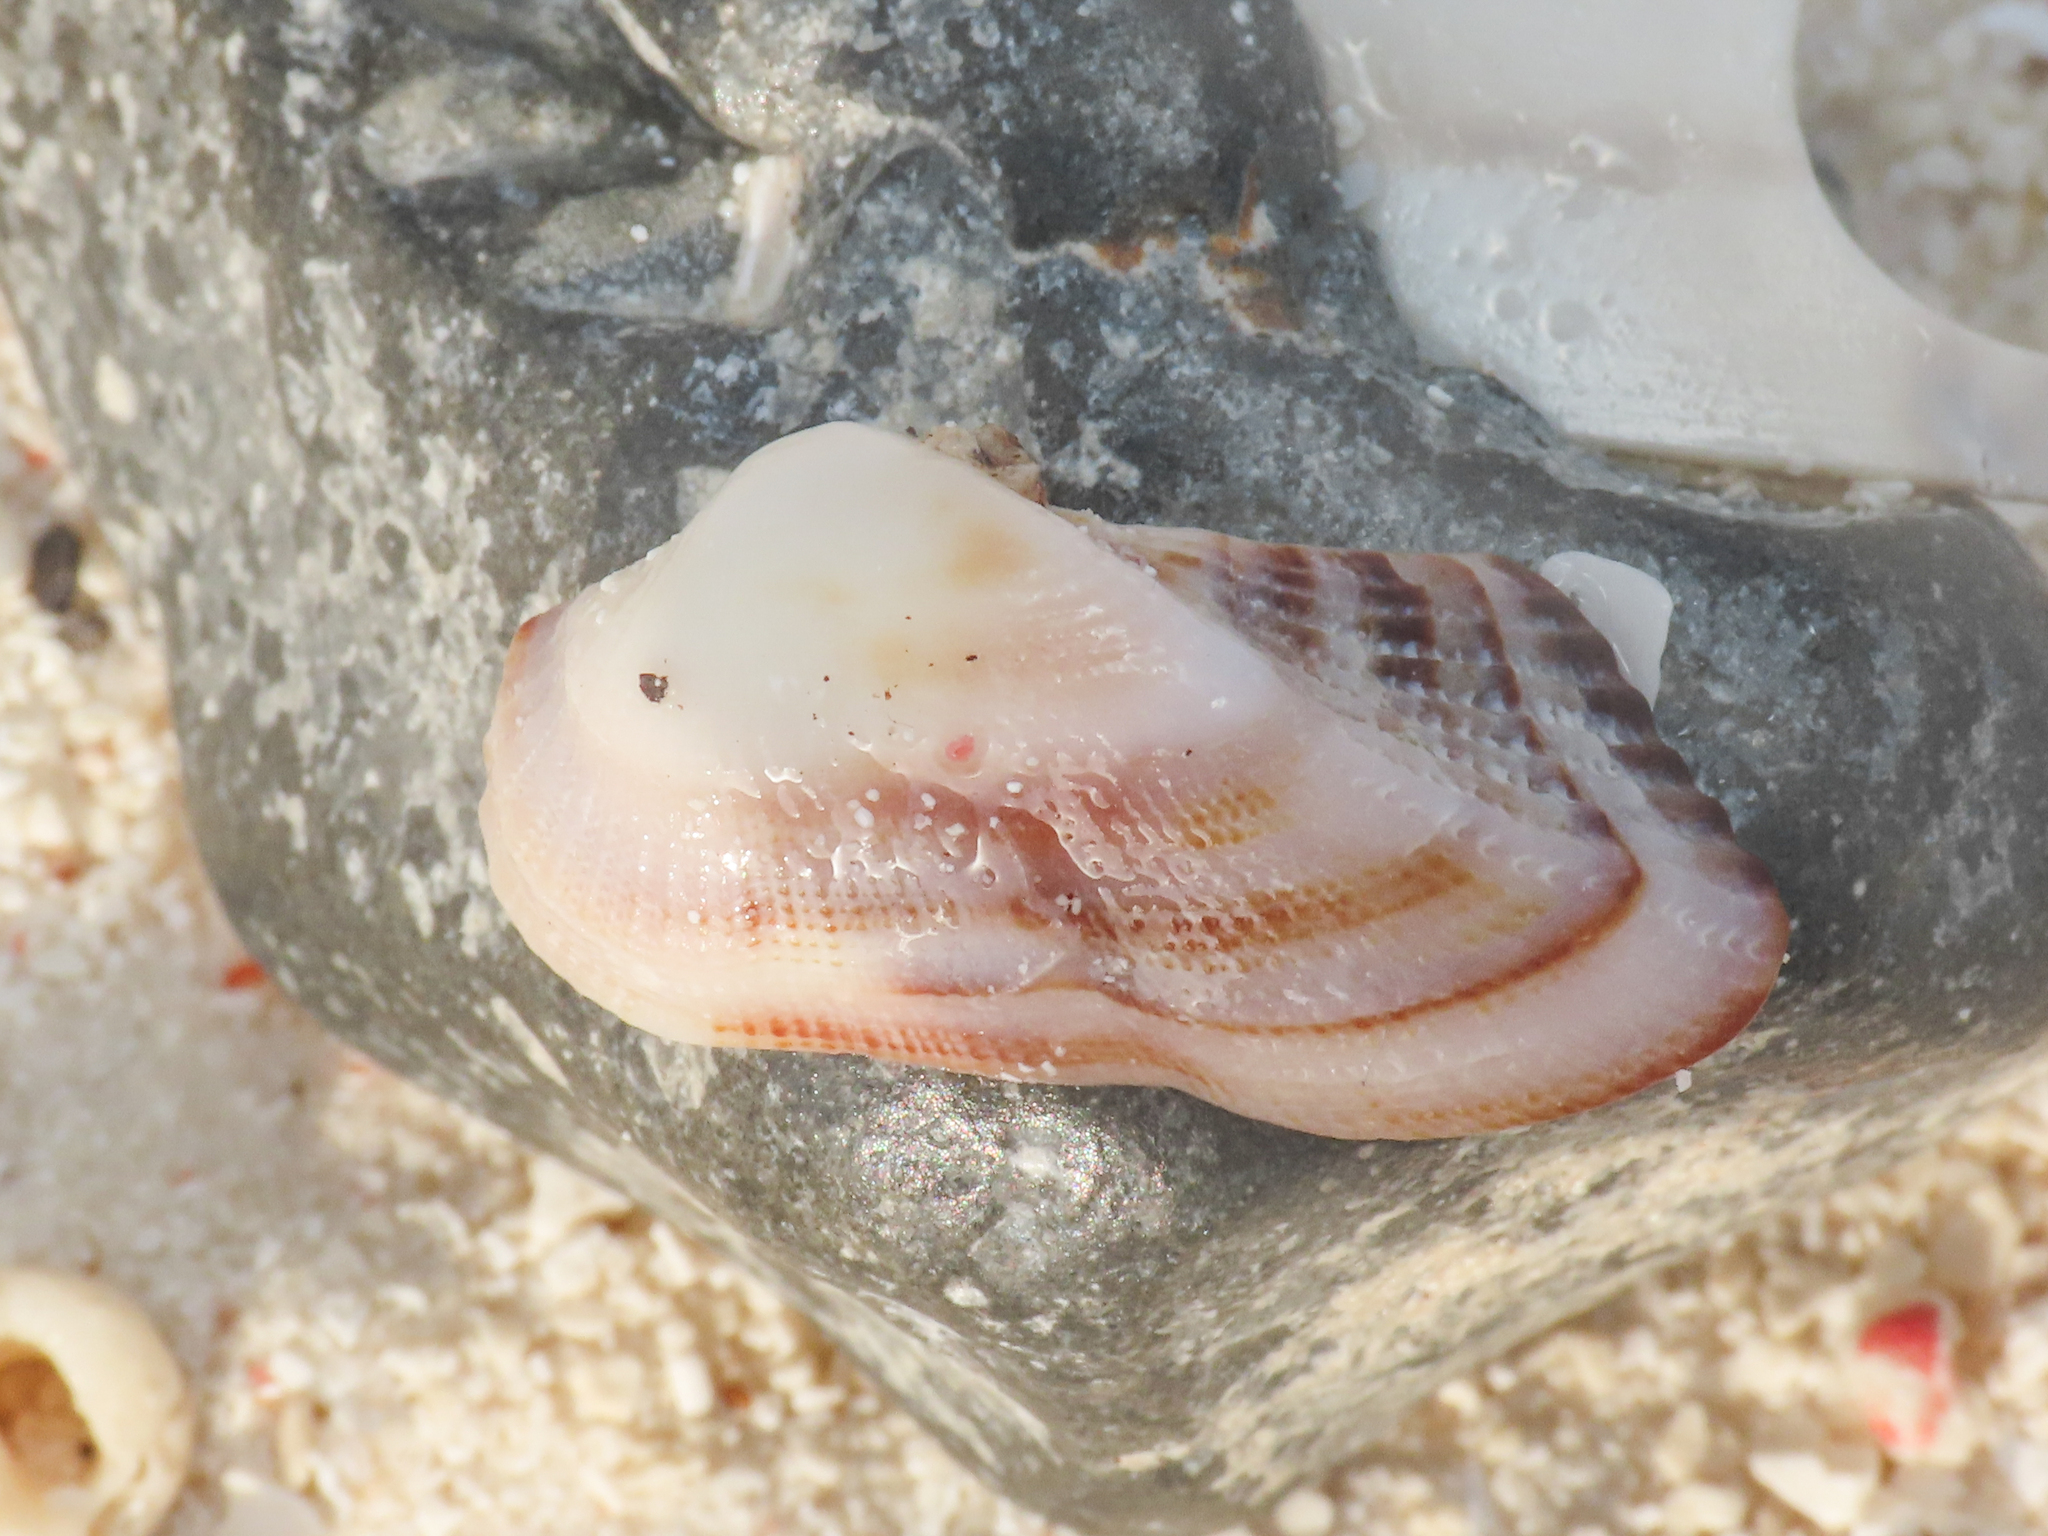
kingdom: Animalia
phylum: Mollusca
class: Bivalvia
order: Arcida
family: Arcidae
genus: Lamarcka
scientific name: Lamarcka avellana
